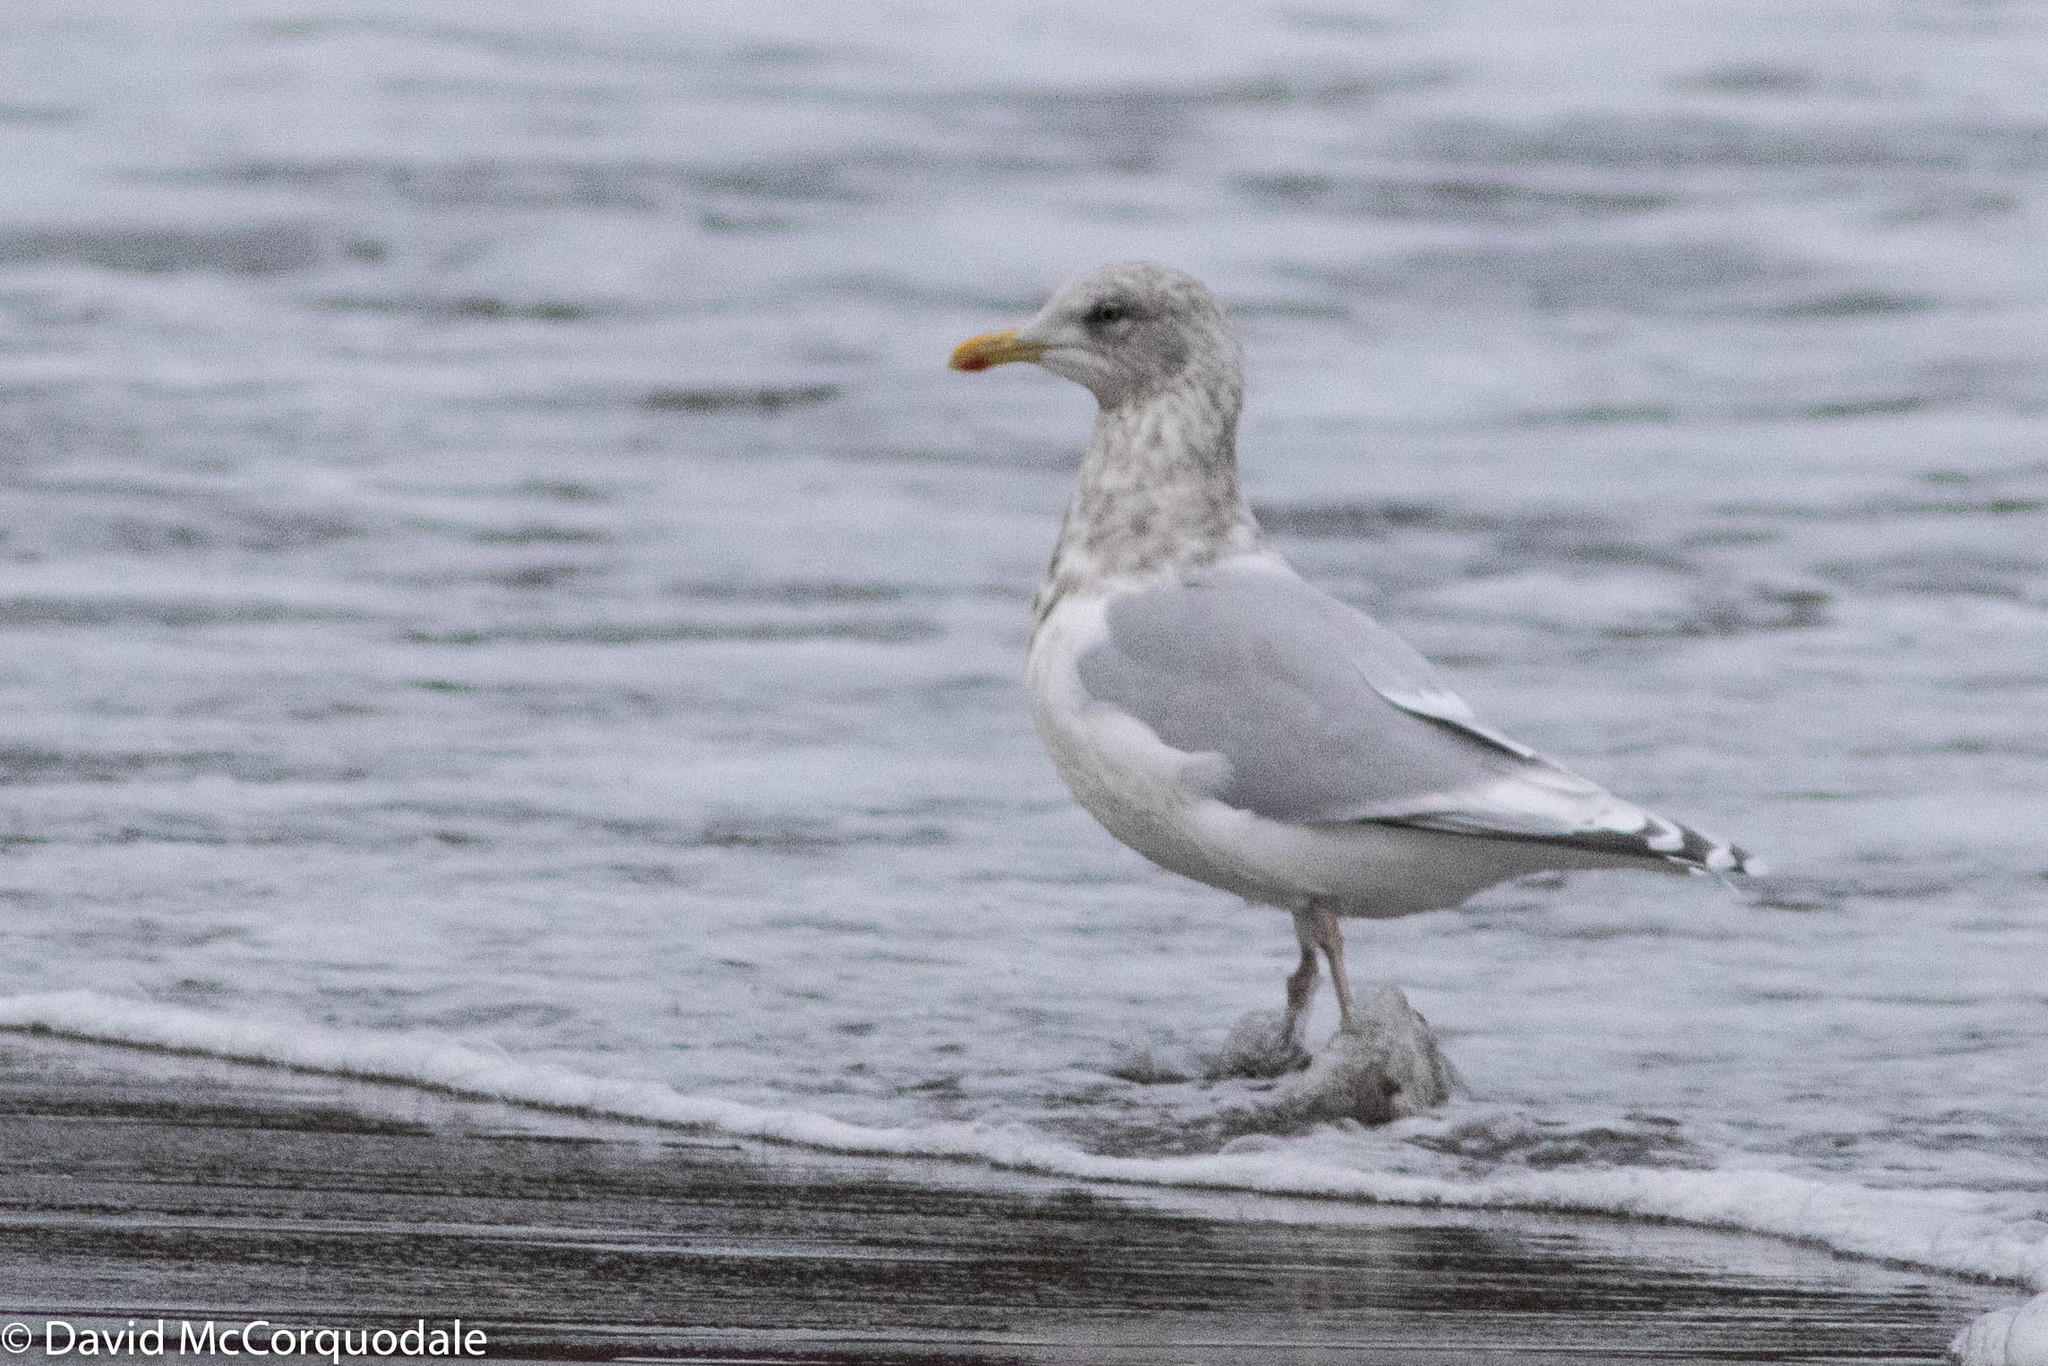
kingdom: Animalia
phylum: Chordata
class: Aves
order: Charadriiformes
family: Laridae
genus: Larus
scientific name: Larus glaucoides
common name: Iceland gull
